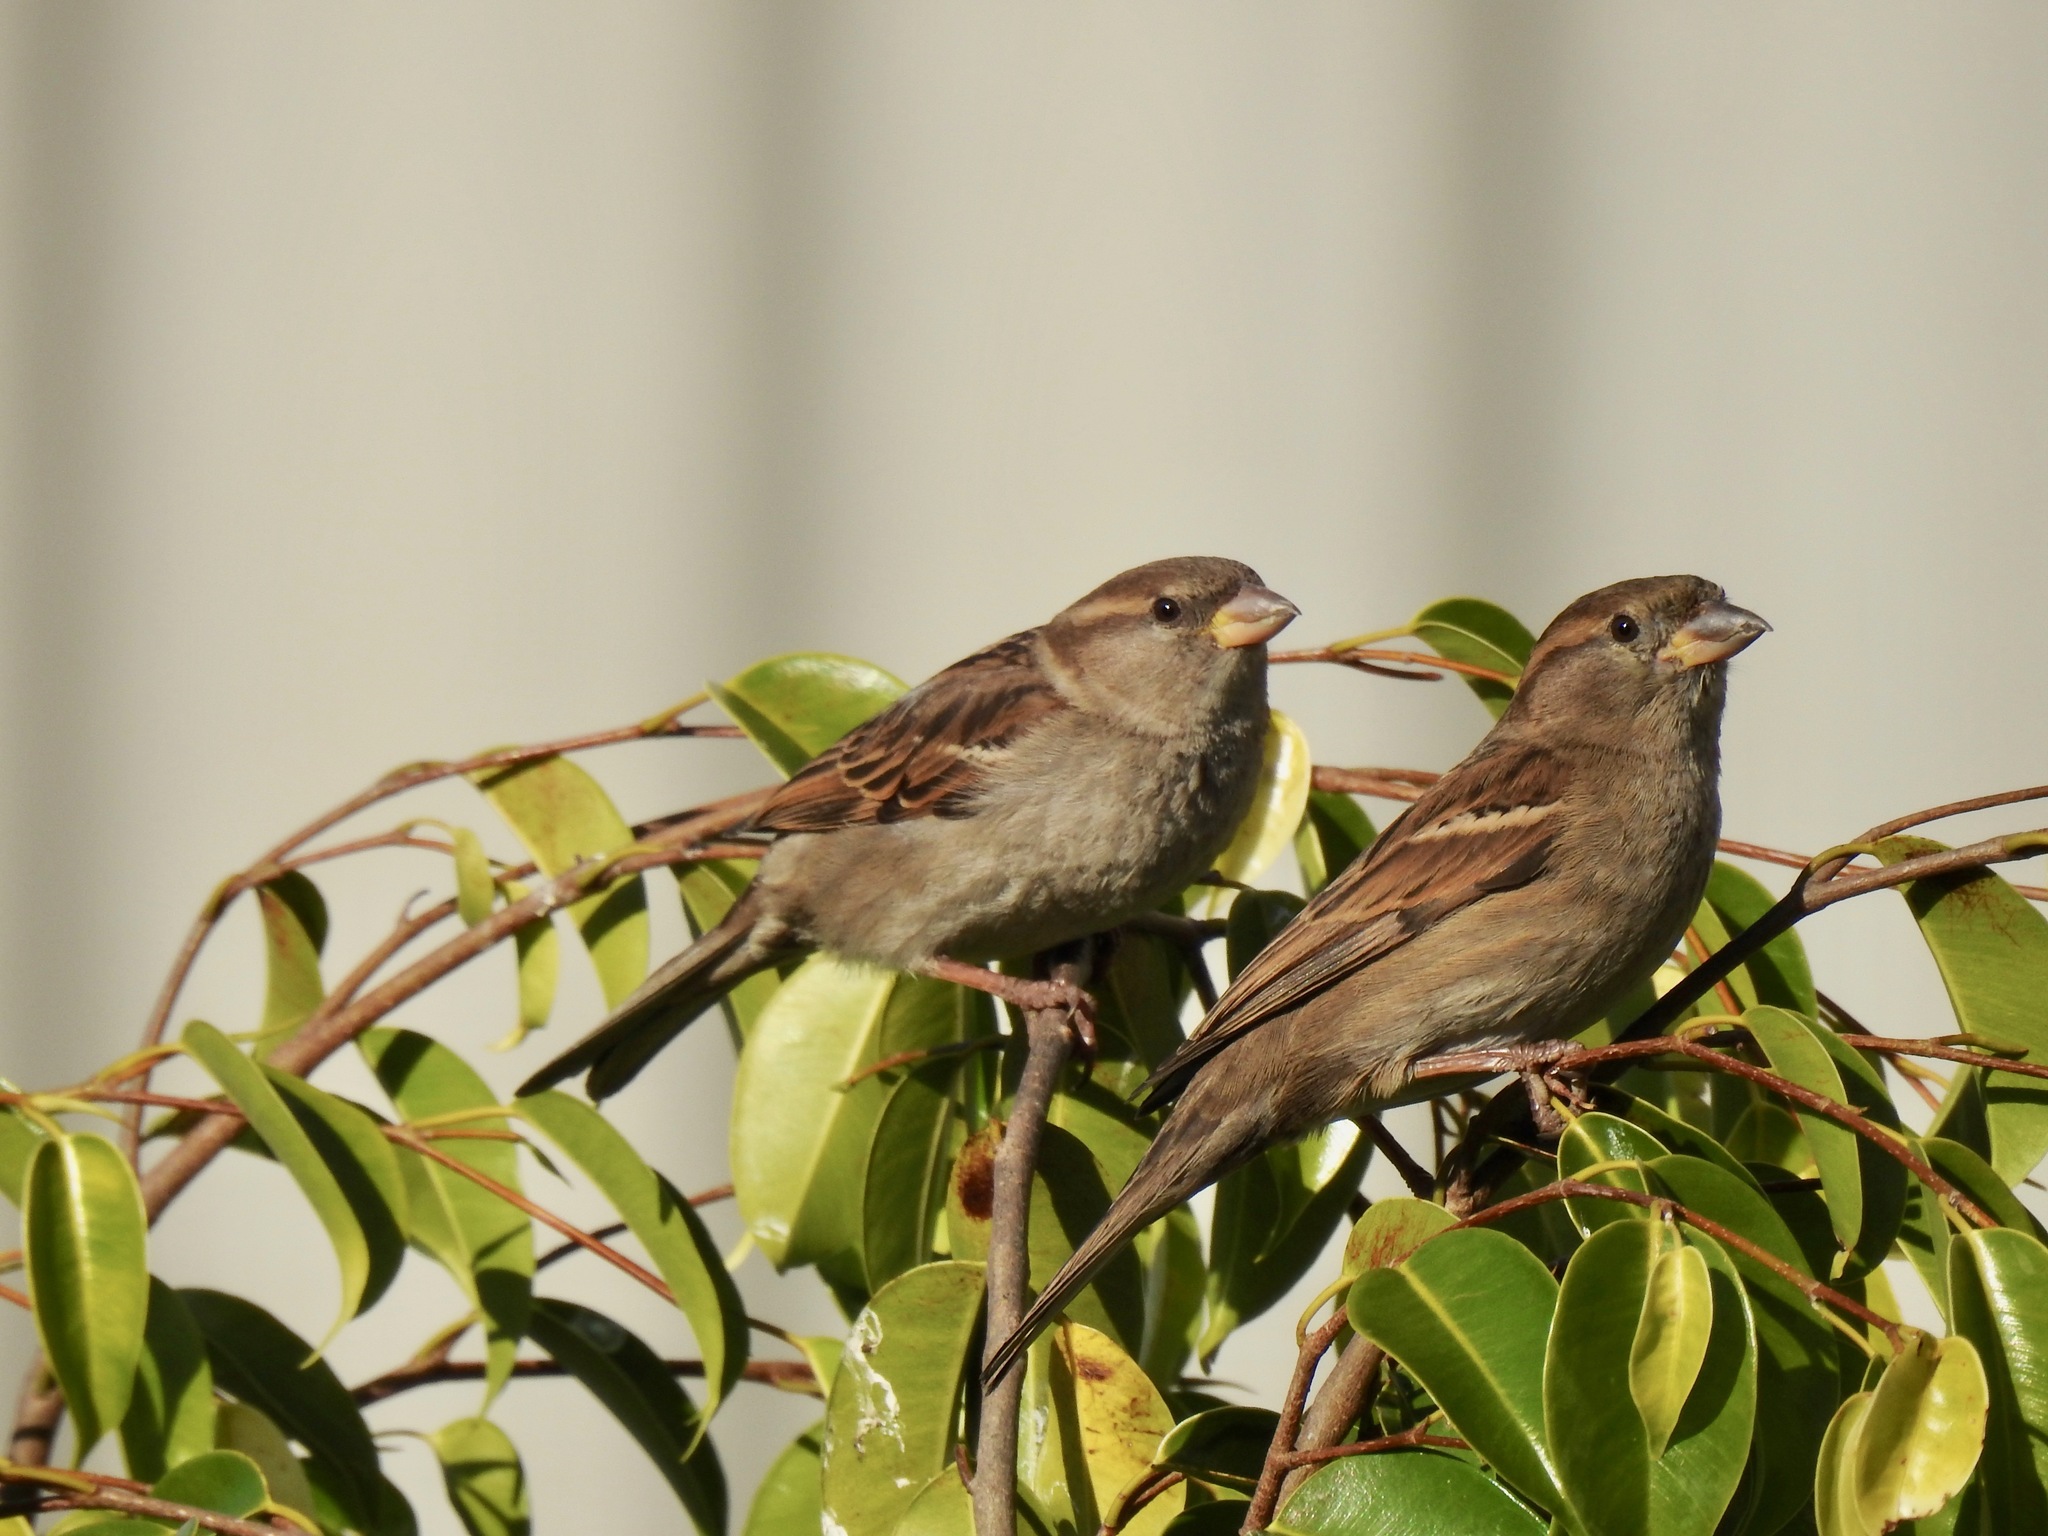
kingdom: Animalia
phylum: Chordata
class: Aves
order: Passeriformes
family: Passeridae
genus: Passer
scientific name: Passer domesticus
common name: House sparrow
